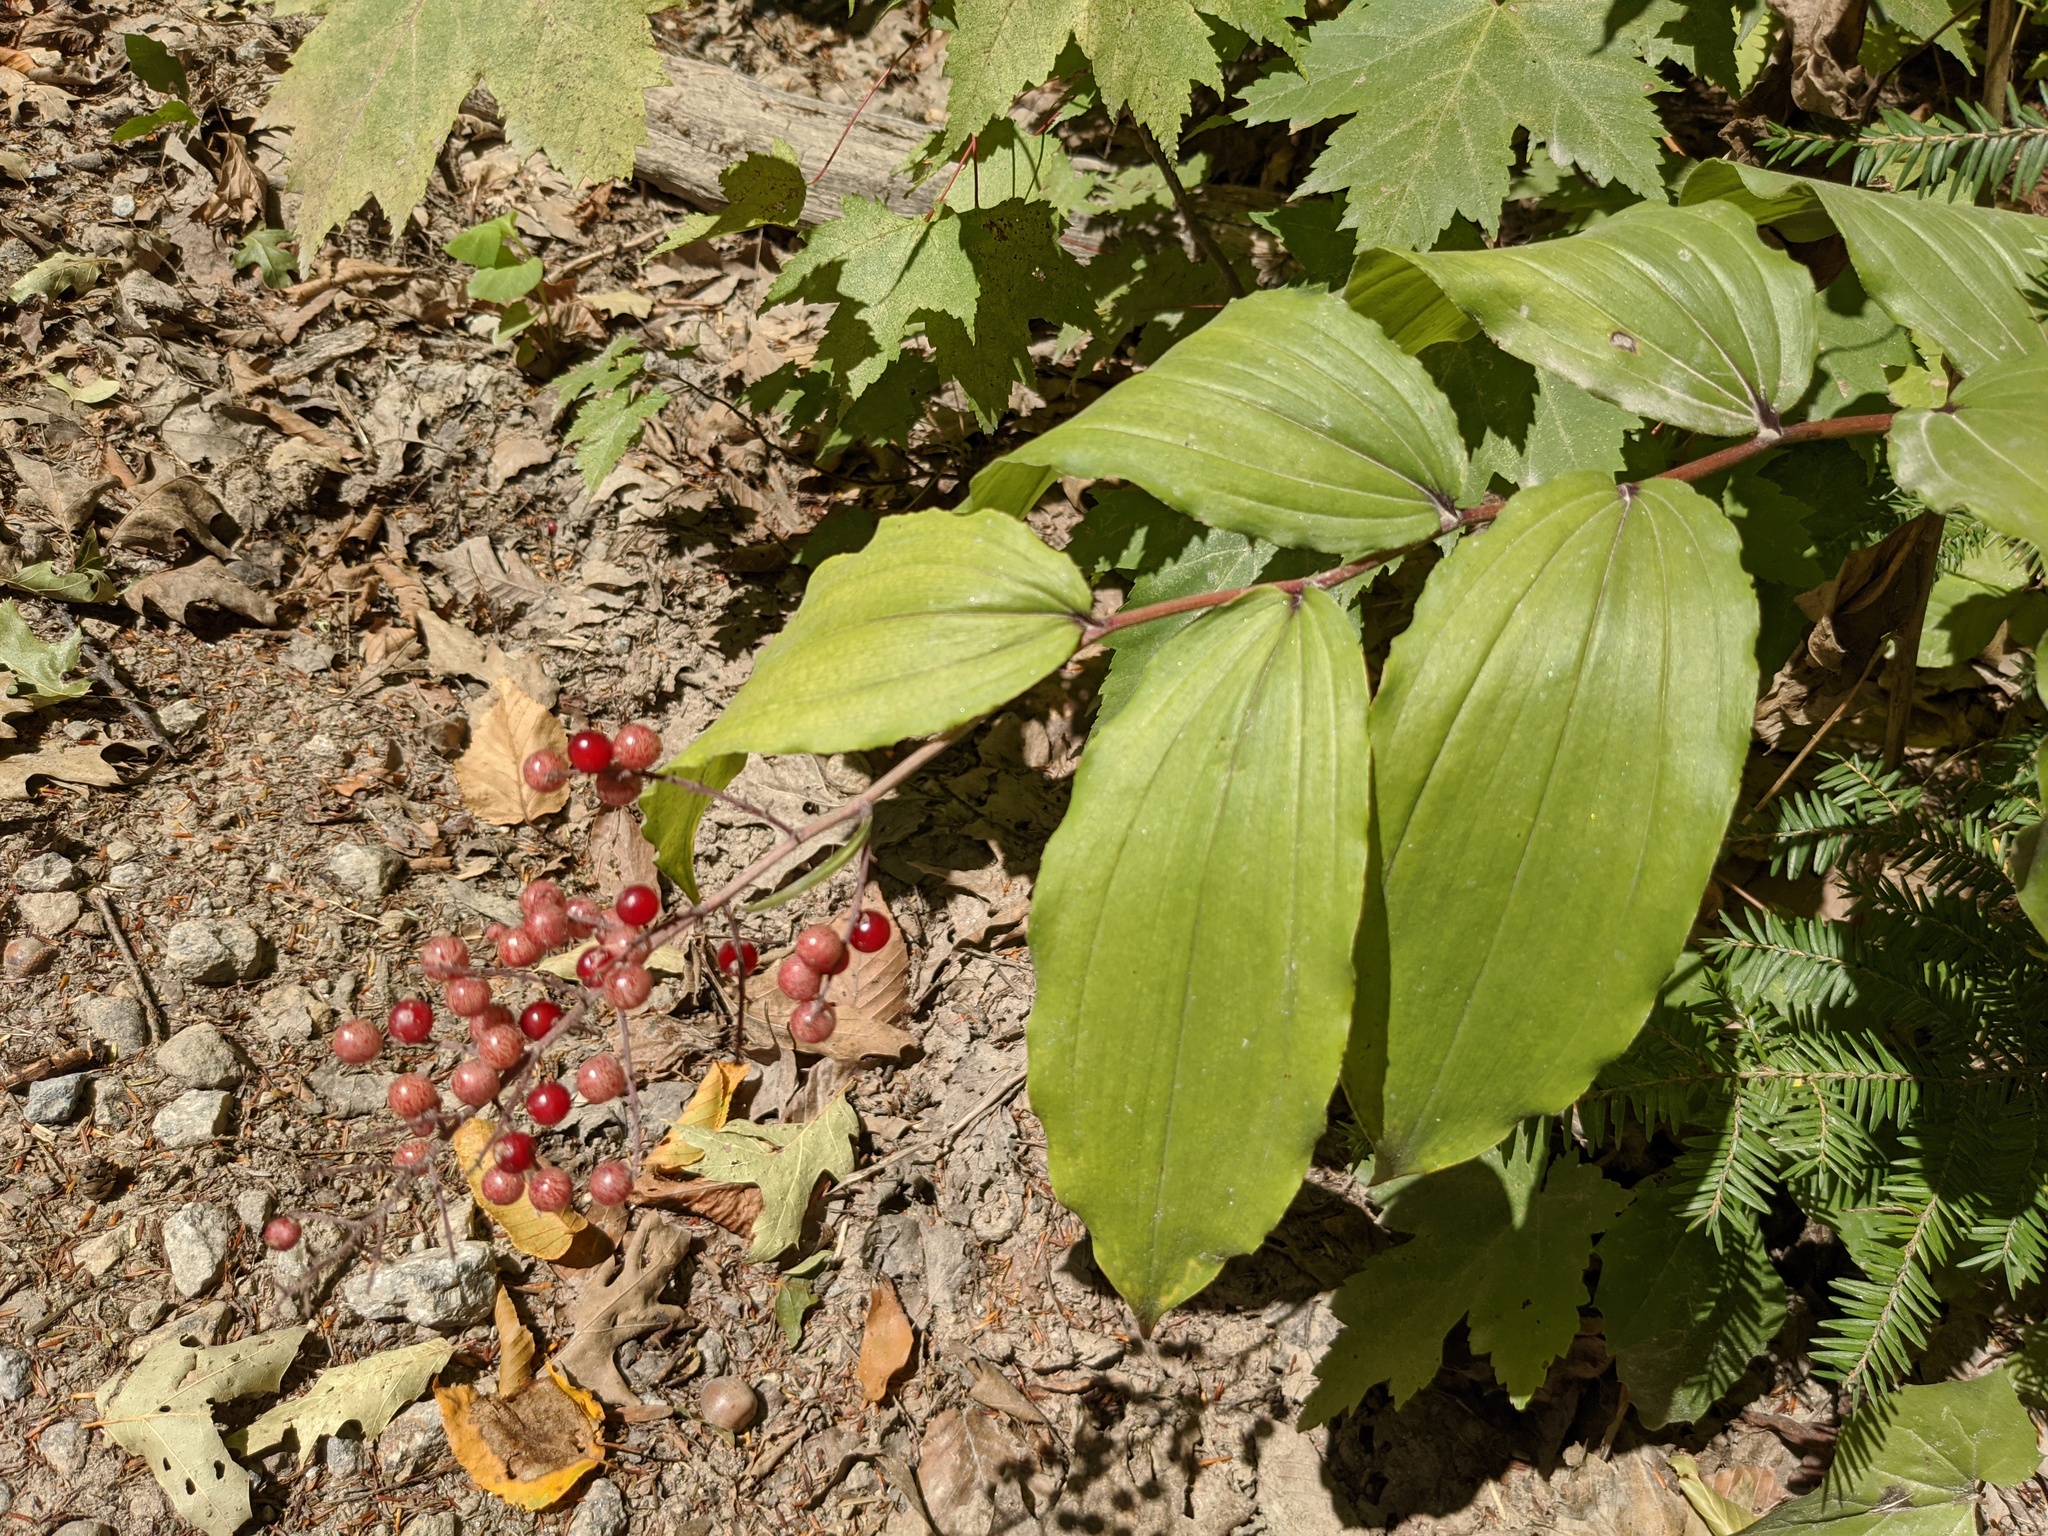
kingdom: Plantae
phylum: Tracheophyta
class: Liliopsida
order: Asparagales
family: Asparagaceae
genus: Maianthemum
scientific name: Maianthemum racemosum
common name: False spikenard
